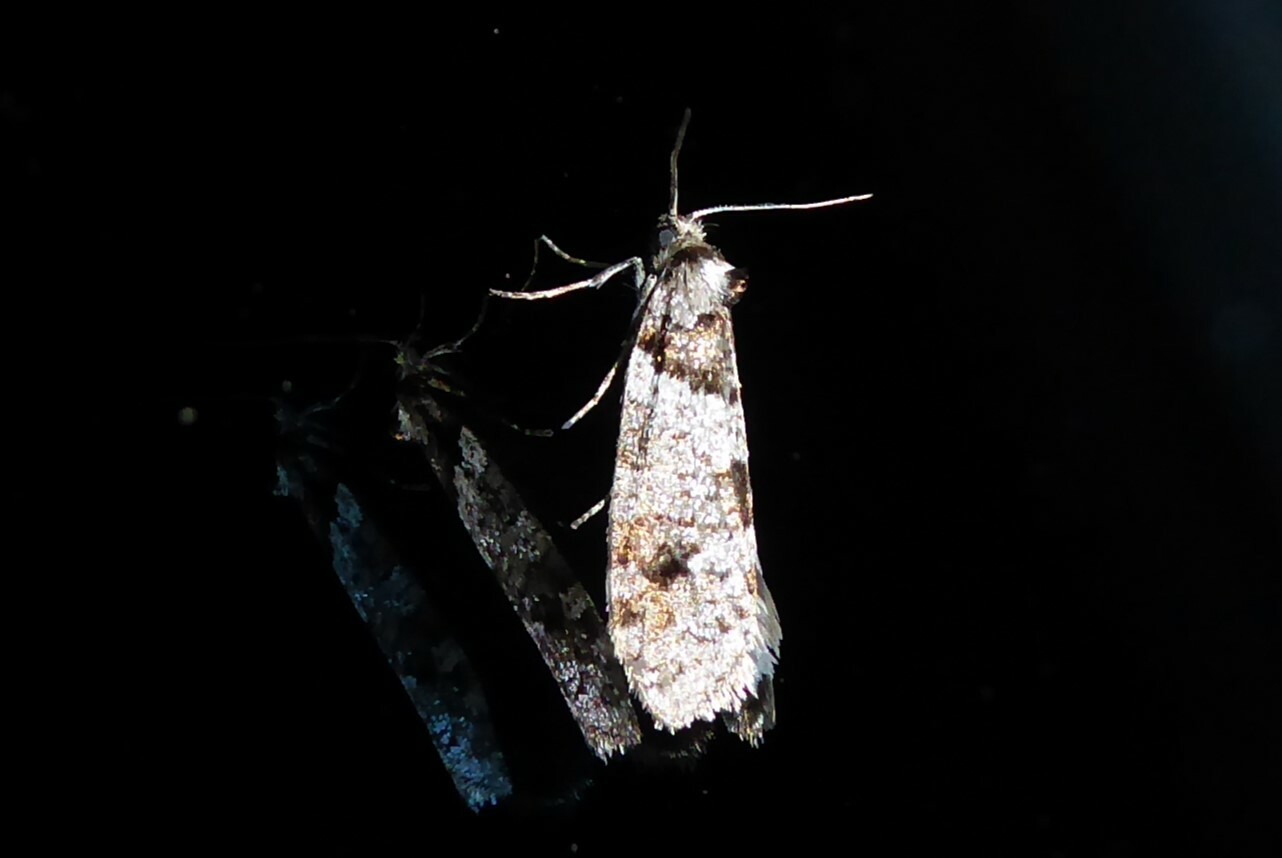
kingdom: Animalia
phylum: Arthropoda
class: Insecta
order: Lepidoptera
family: Psychidae
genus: Lepidoscia
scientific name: Lepidoscia heliochares
